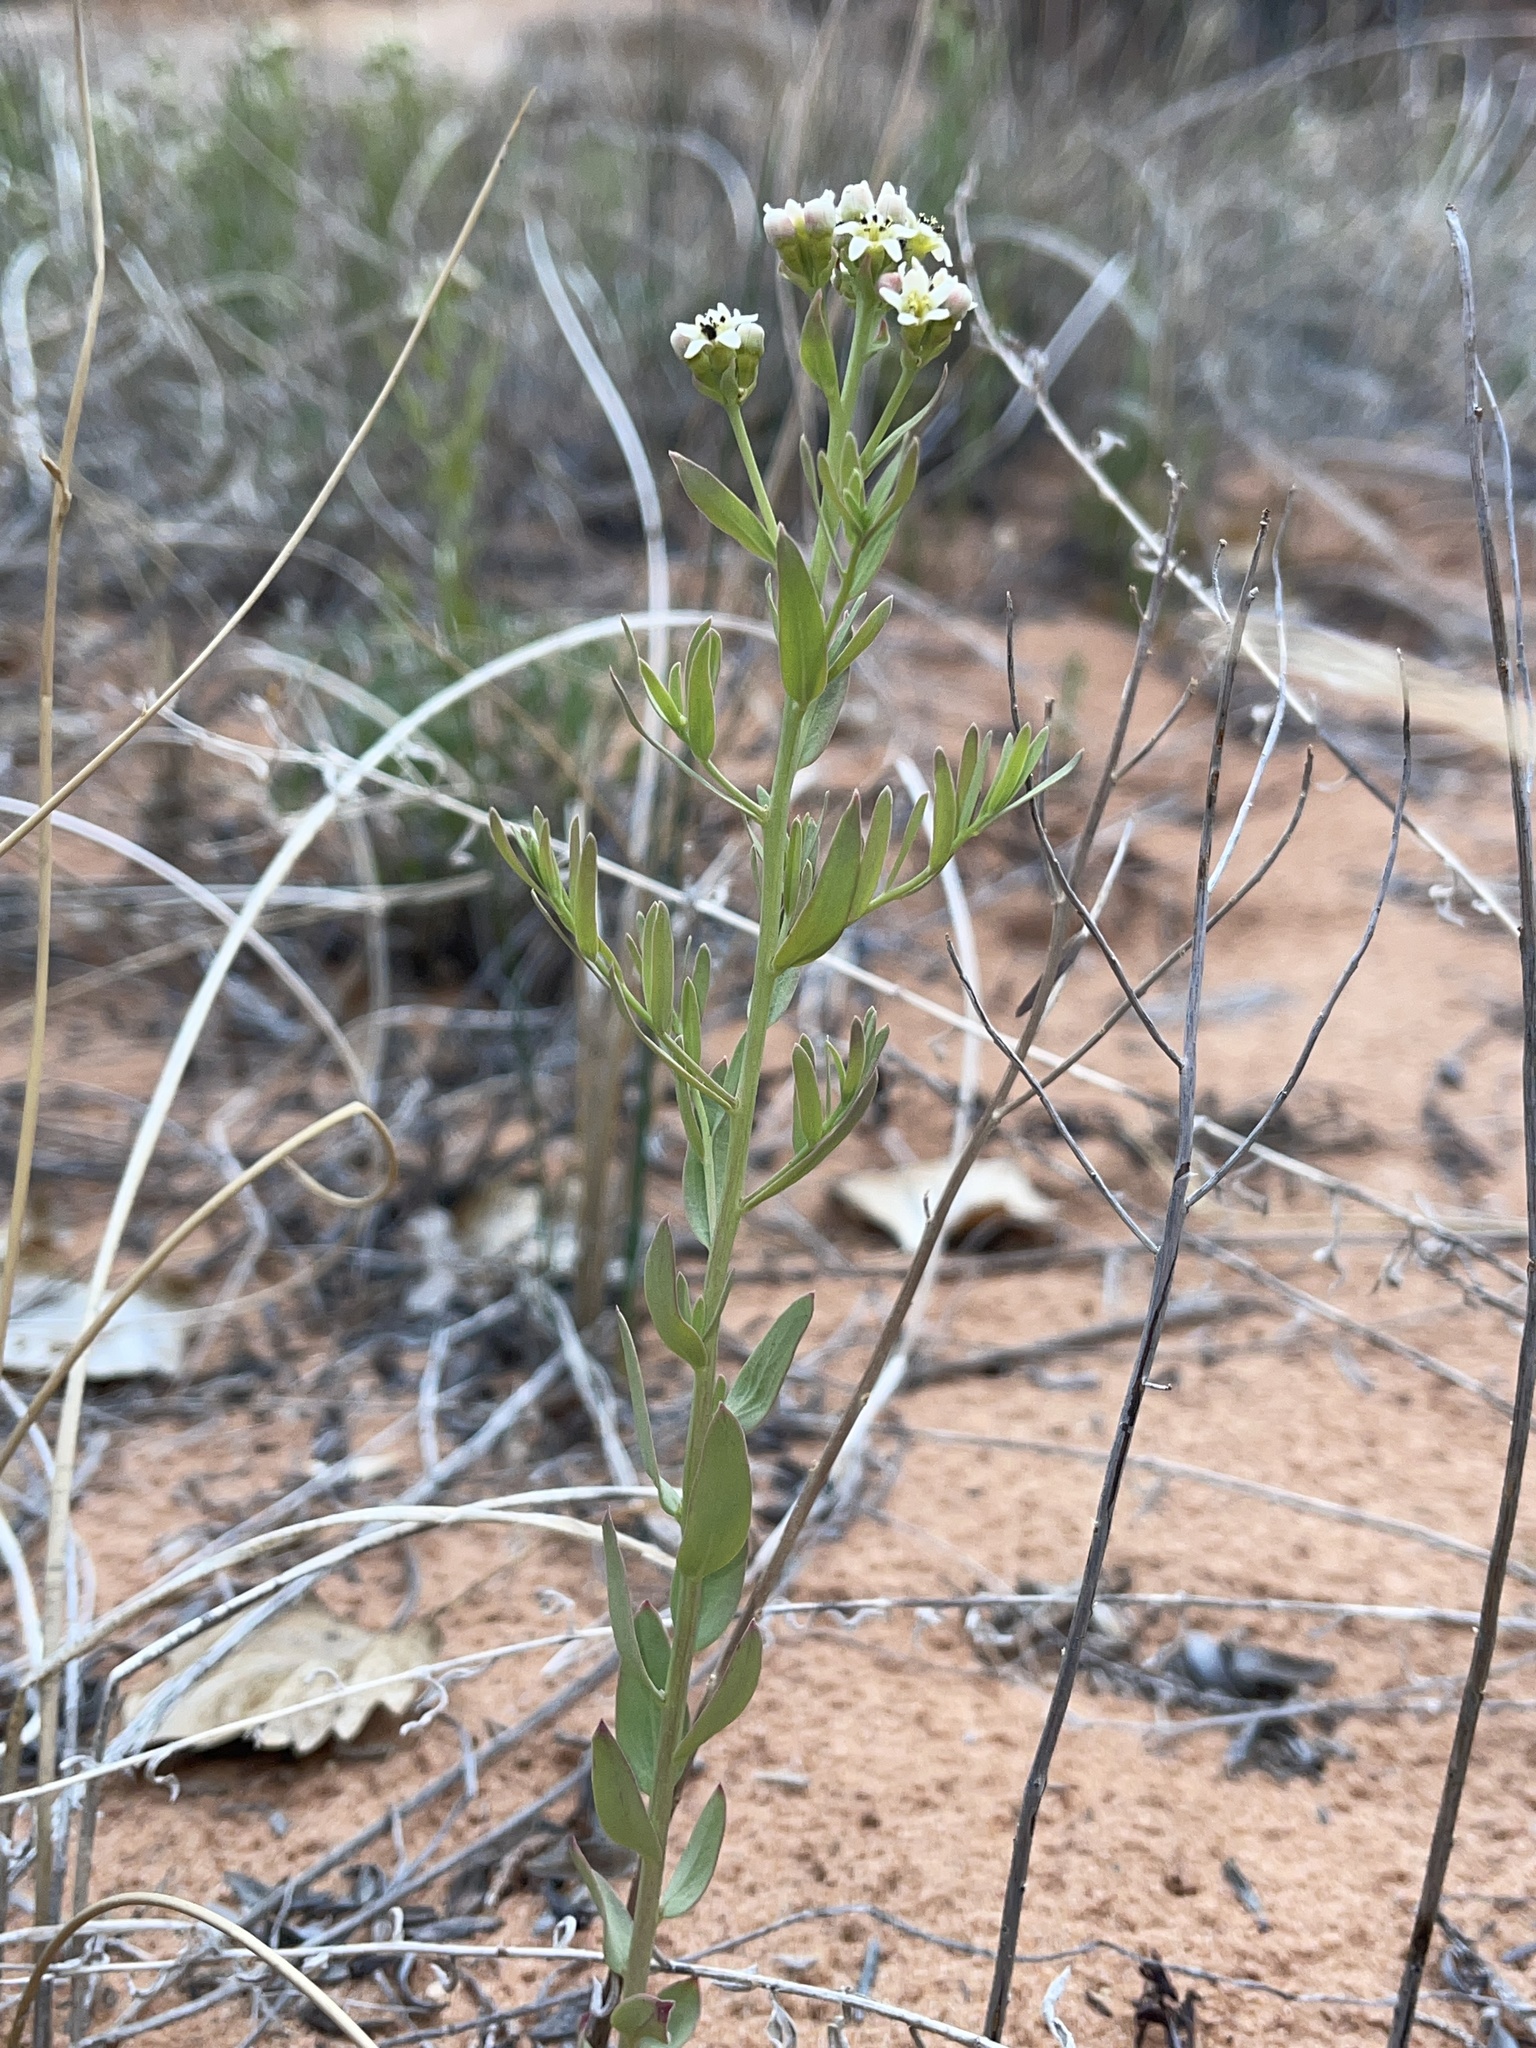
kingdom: Plantae
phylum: Tracheophyta
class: Magnoliopsida
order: Santalales
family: Comandraceae
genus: Comandra
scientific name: Comandra umbellata
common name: Bastard toadflax
